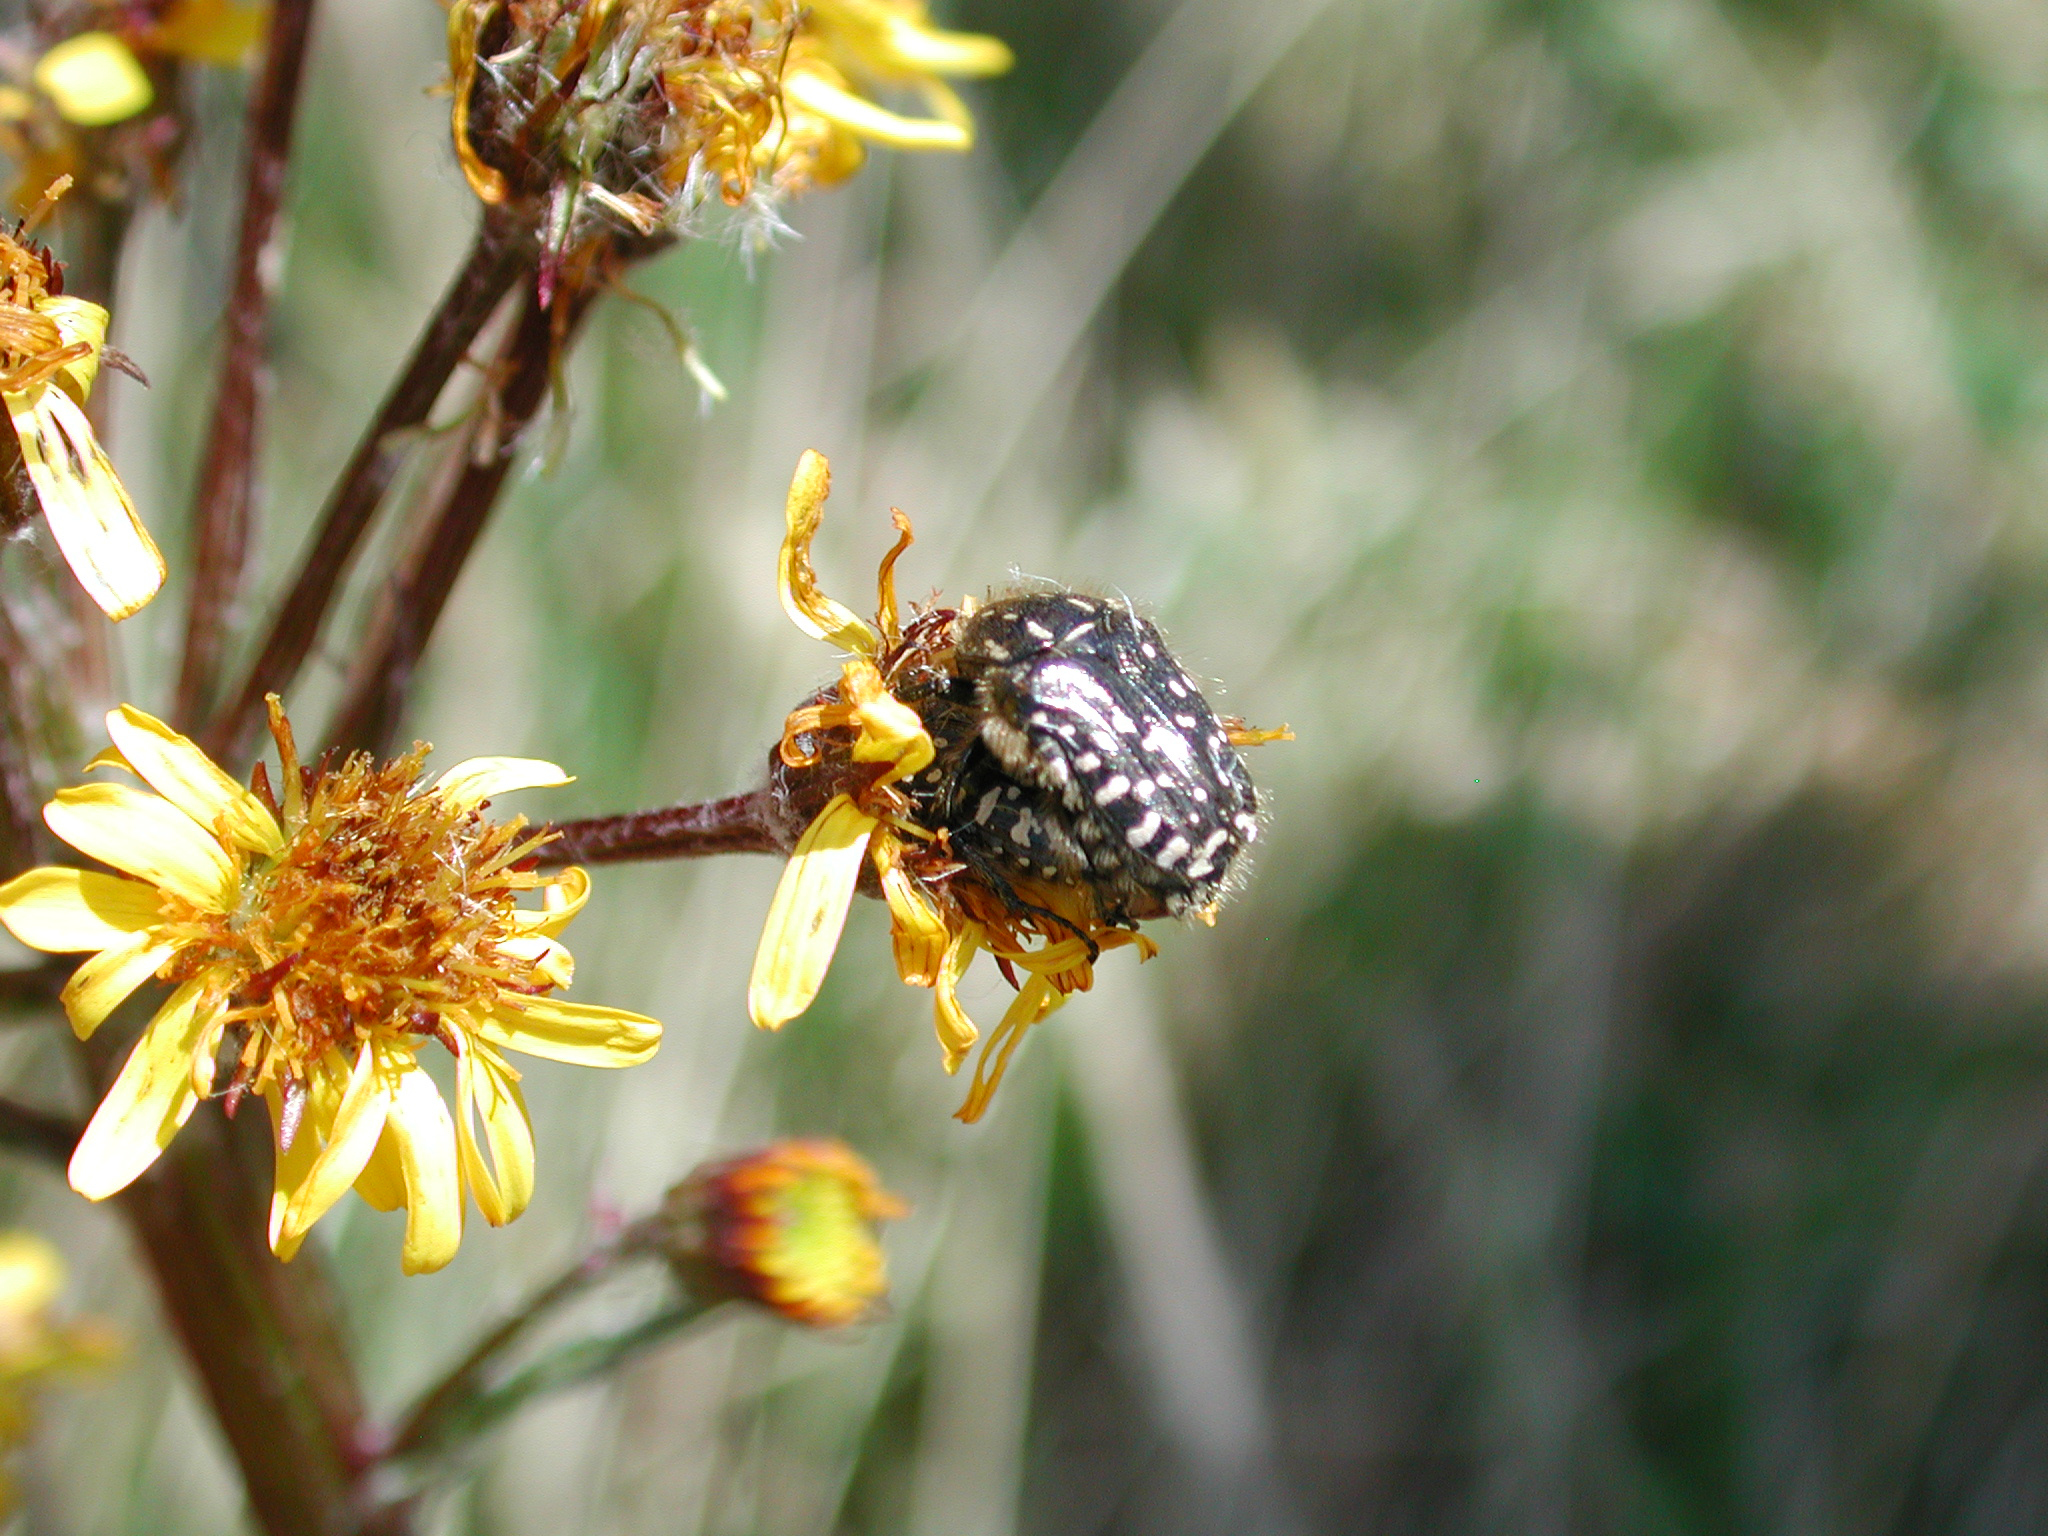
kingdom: Animalia
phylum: Arthropoda
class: Insecta
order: Coleoptera
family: Scarabaeidae
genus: Oxythyrea
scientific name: Oxythyrea funesta
